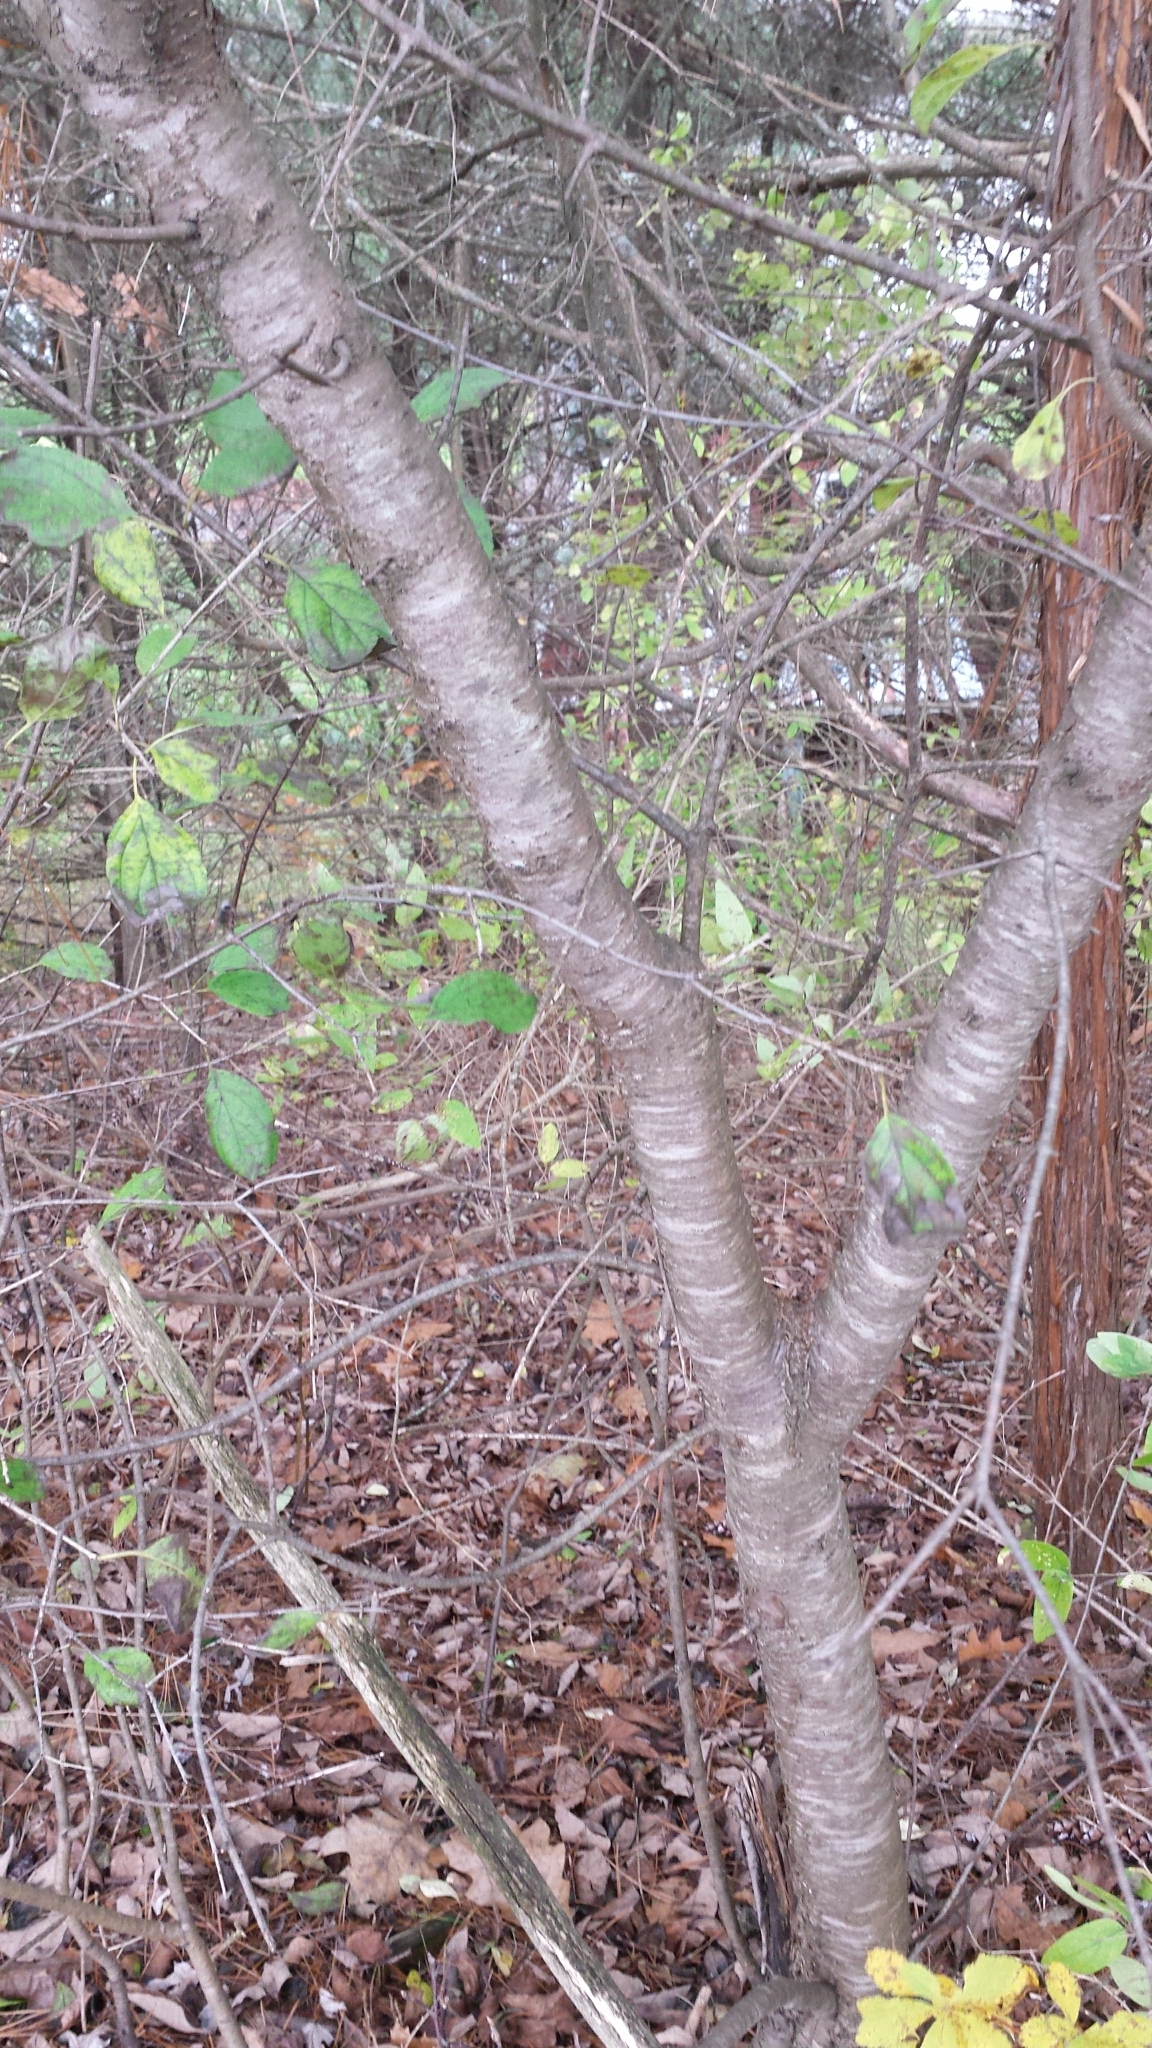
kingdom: Plantae
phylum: Tracheophyta
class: Magnoliopsida
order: Rosales
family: Rhamnaceae
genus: Rhamnus
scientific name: Rhamnus cathartica
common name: Common buckthorn
